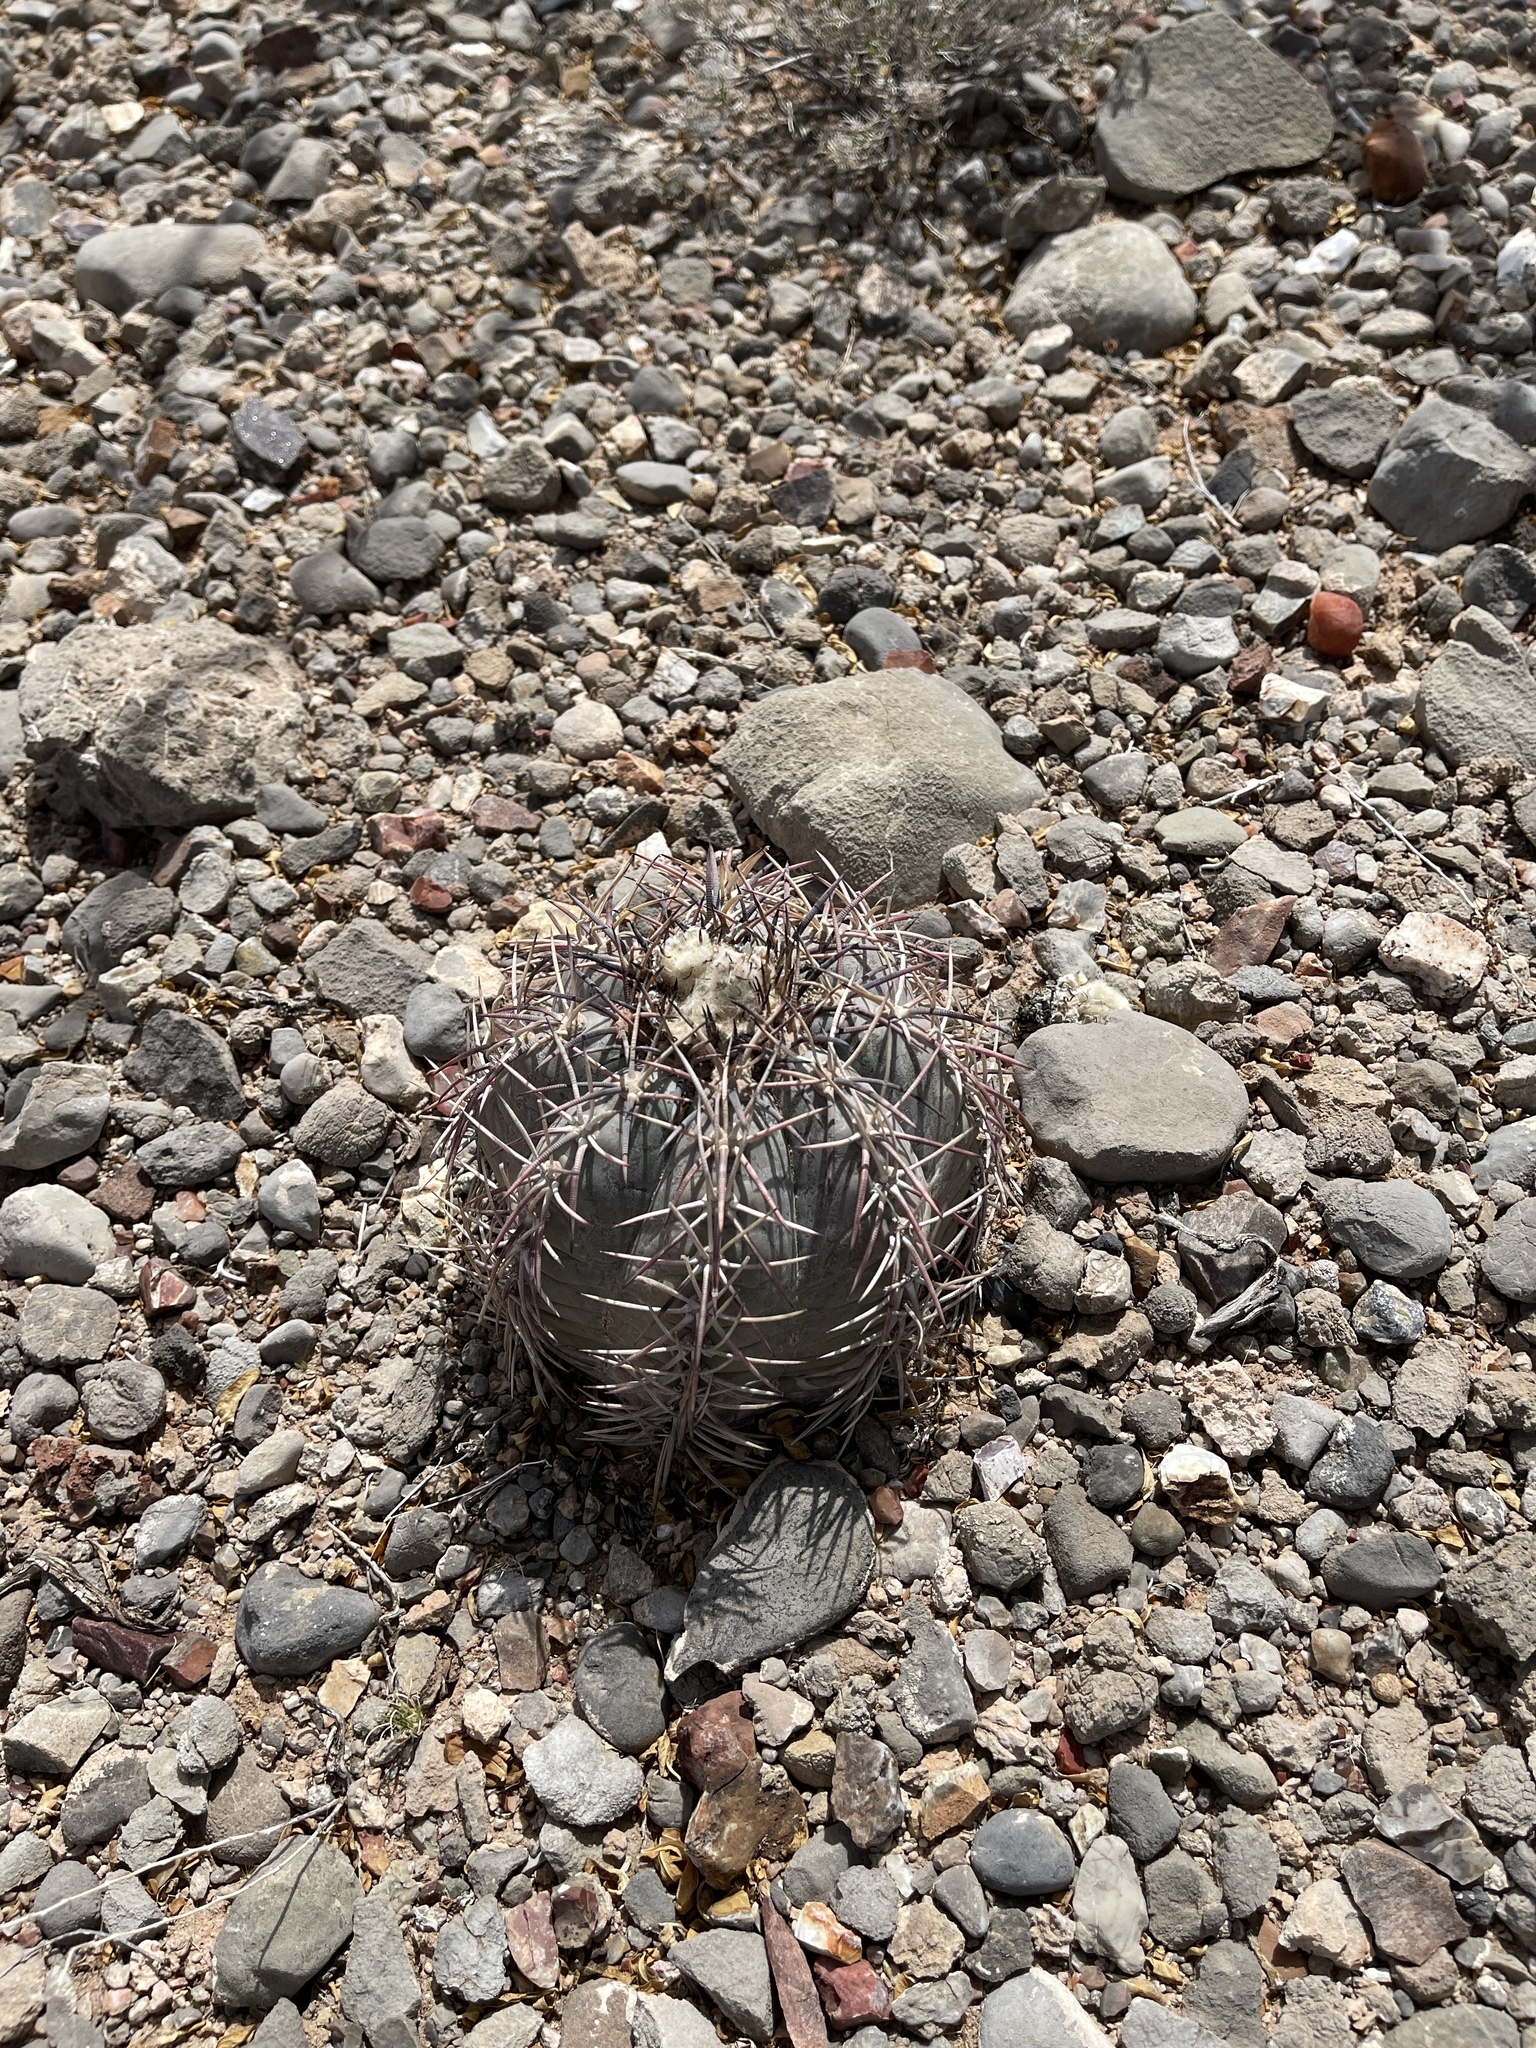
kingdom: Plantae
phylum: Tracheophyta
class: Magnoliopsida
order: Caryophyllales
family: Cactaceae
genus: Echinocactus
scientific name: Echinocactus horizonthalonius
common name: Devilshead
